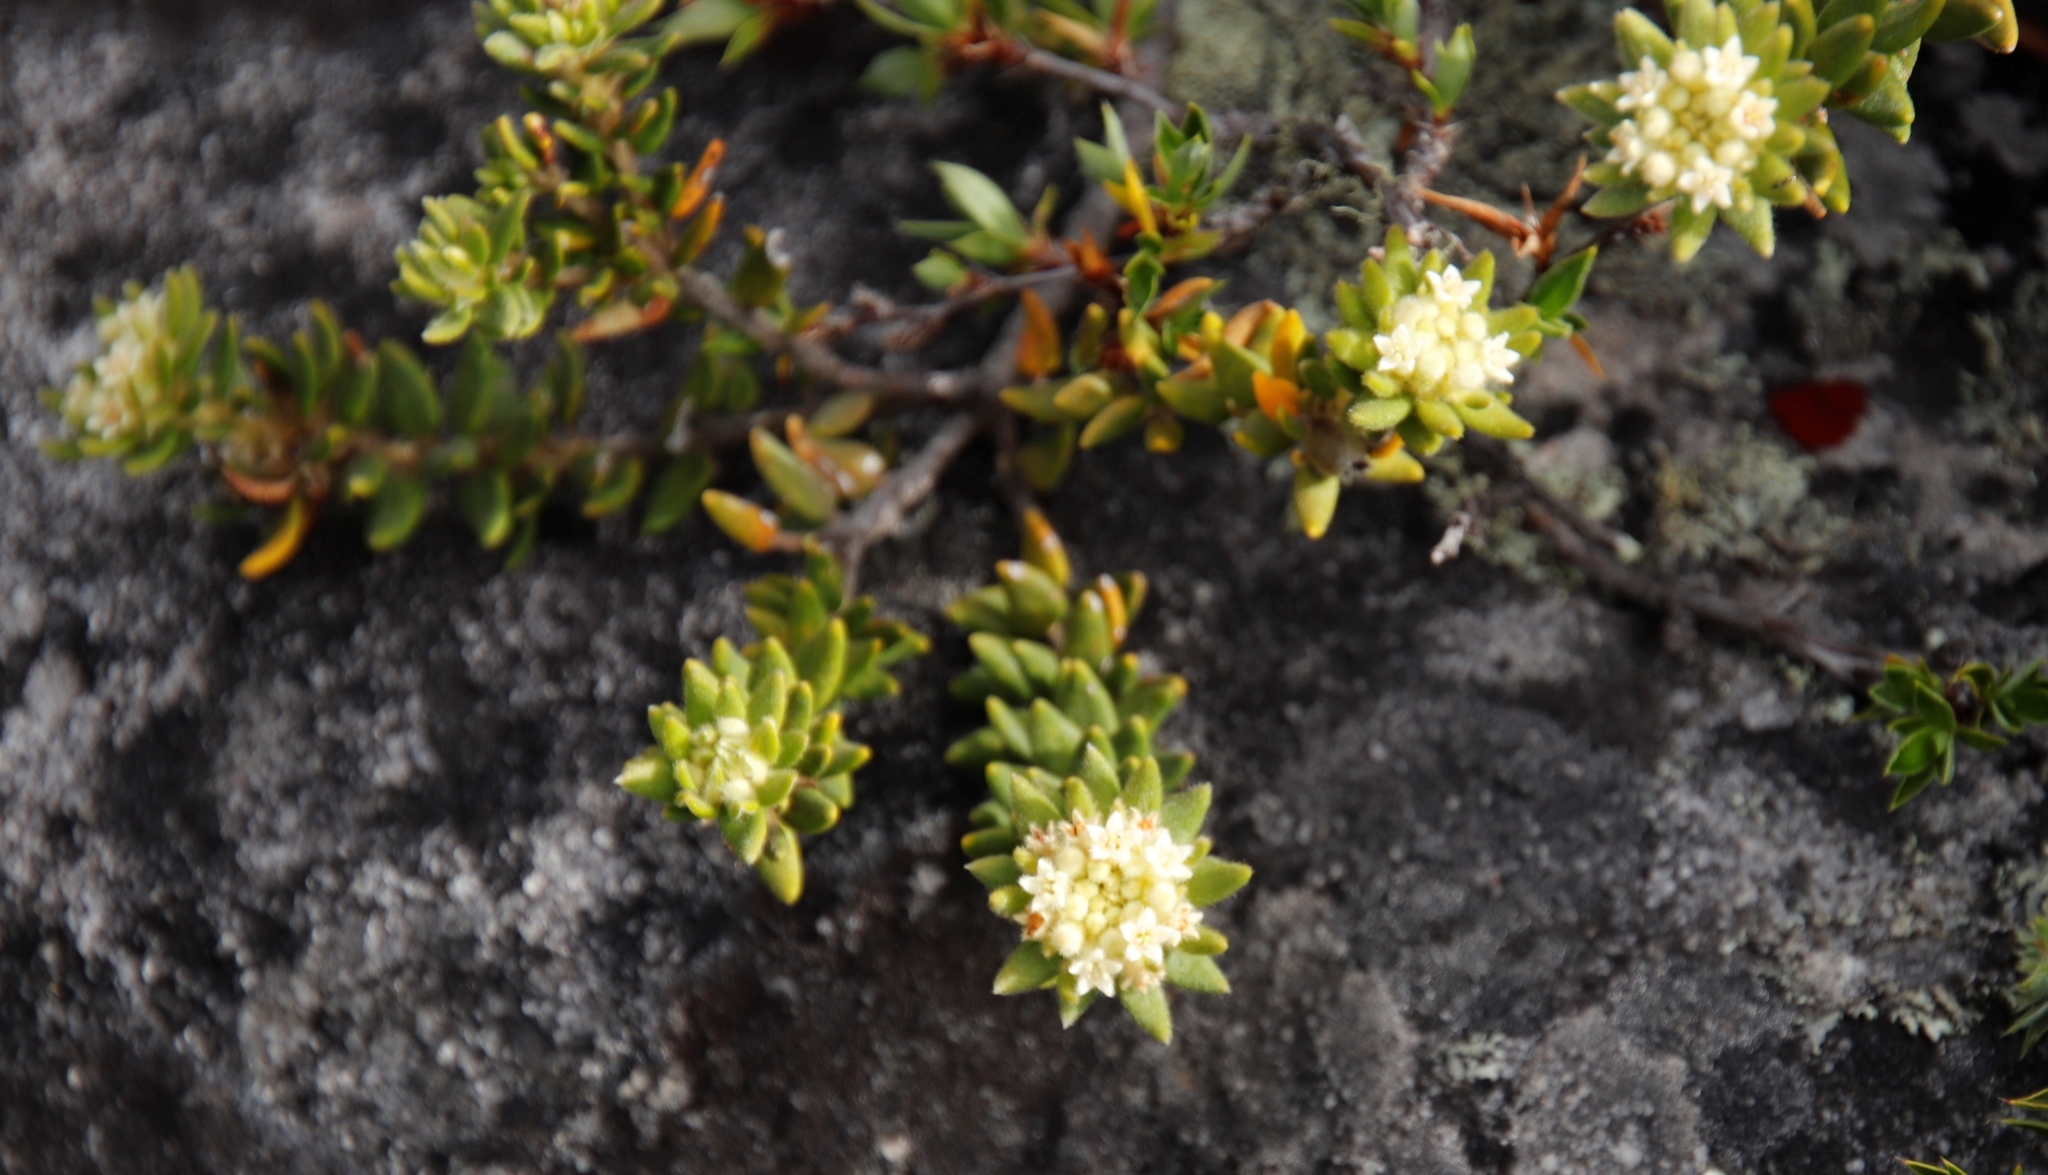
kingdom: Plantae
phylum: Tracheophyta
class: Magnoliopsida
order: Rosales
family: Rhamnaceae
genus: Phylica
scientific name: Phylica dioica
